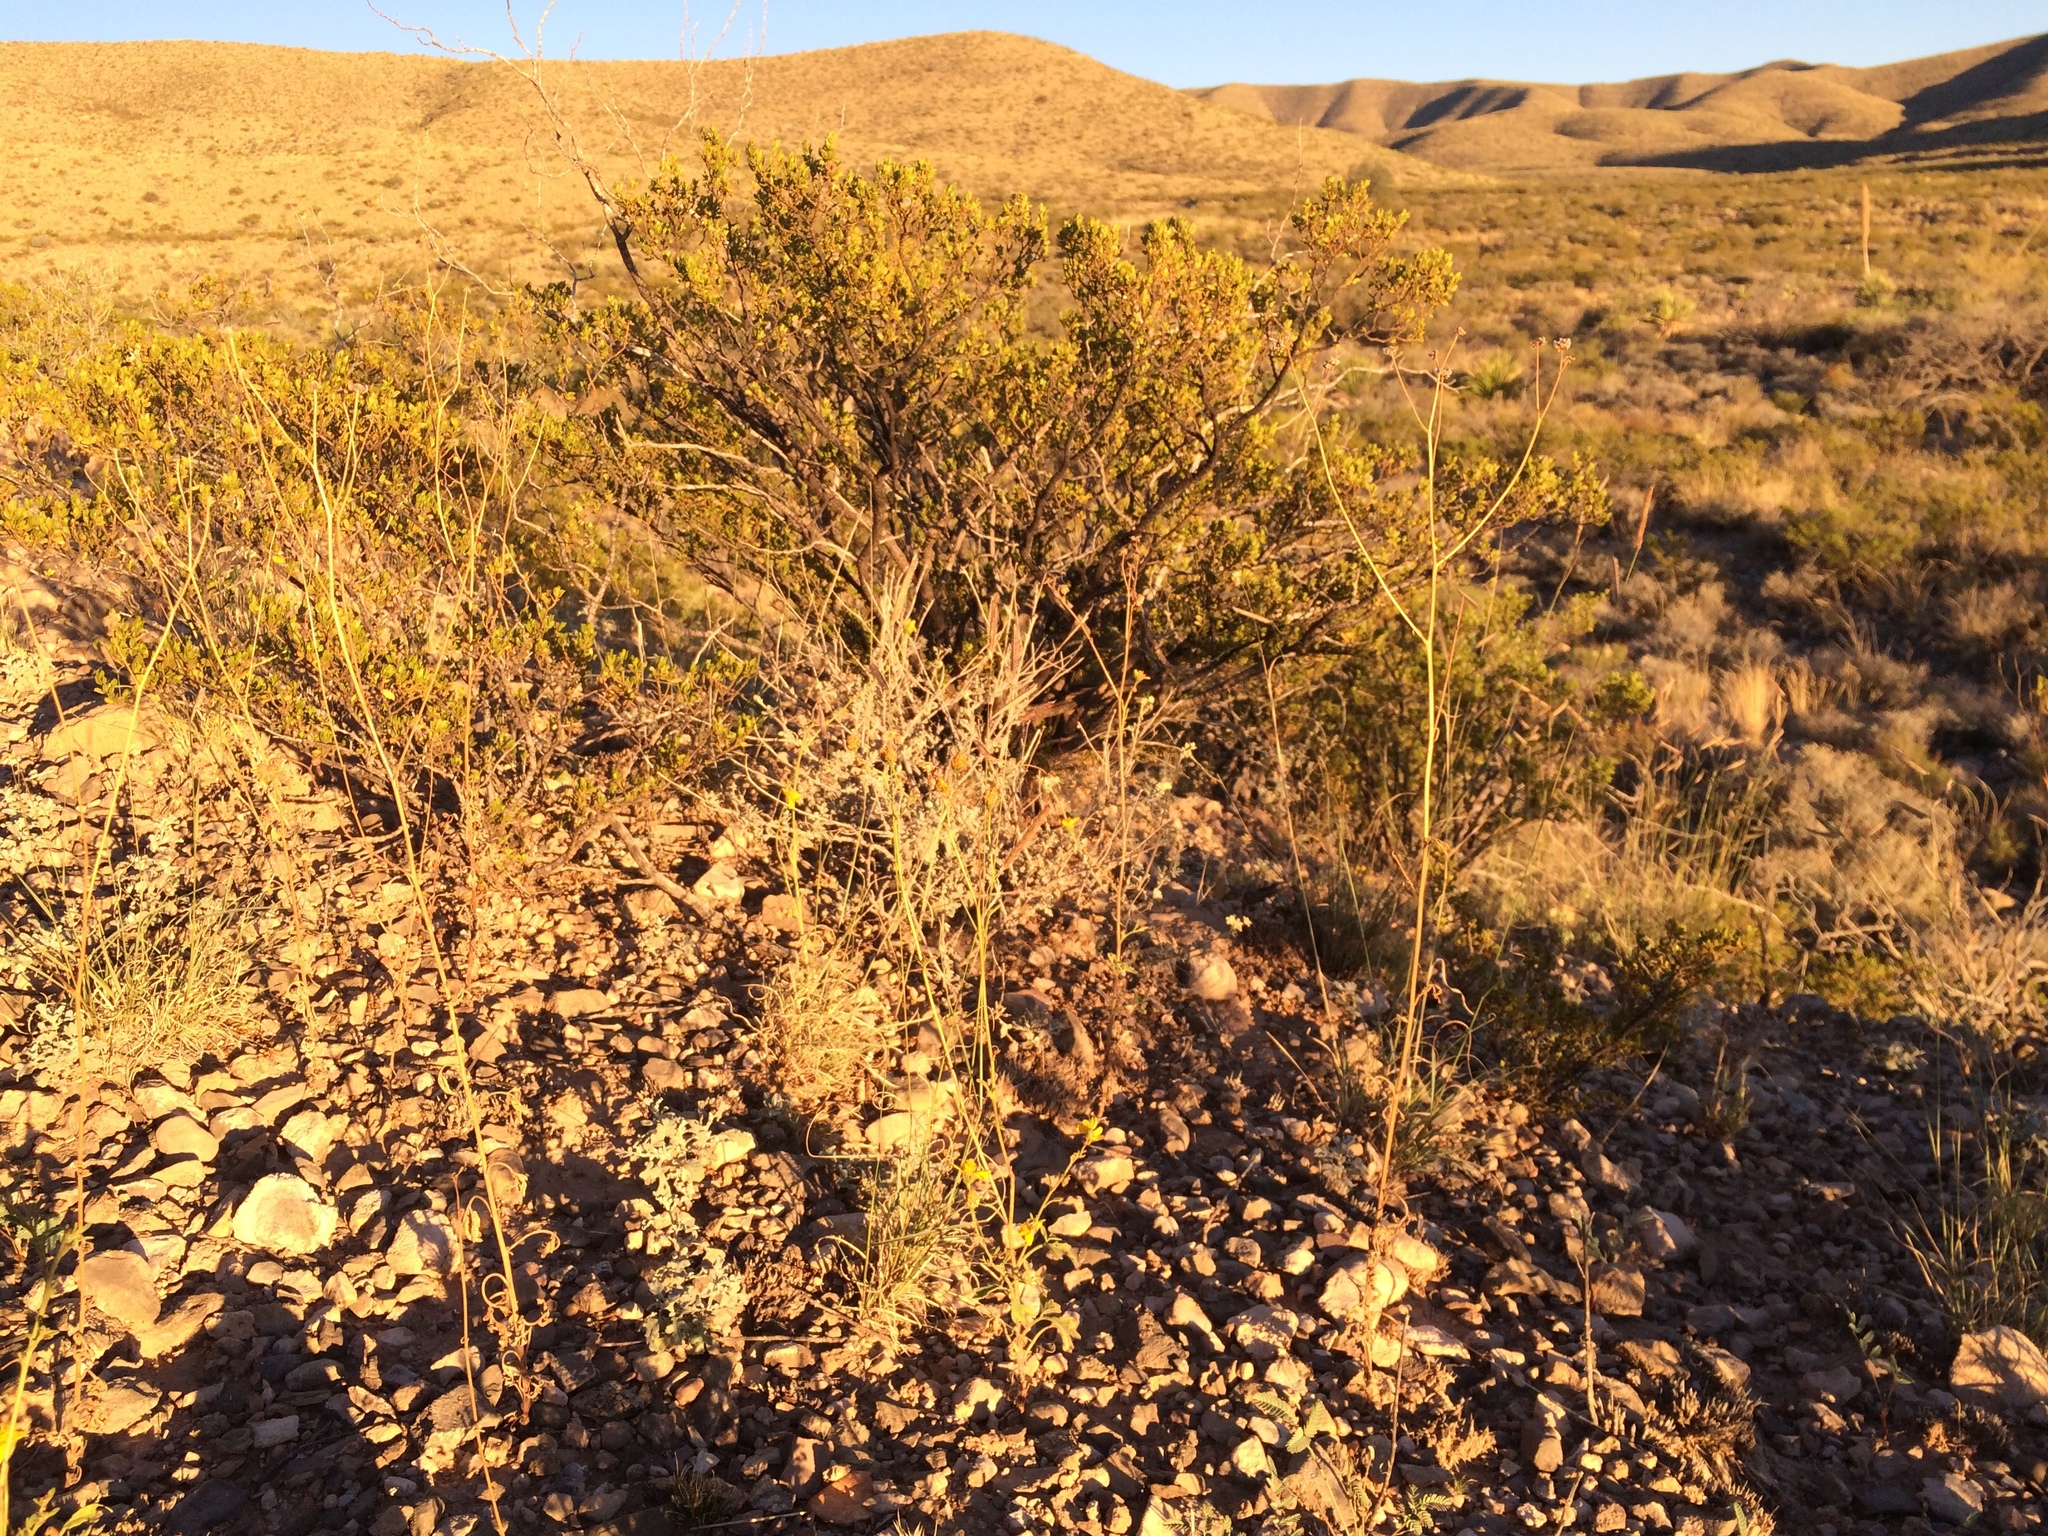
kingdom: Plantae
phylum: Tracheophyta
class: Magnoliopsida
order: Asterales
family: Asteraceae
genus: Hymenothrix
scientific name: Hymenothrix pedata
